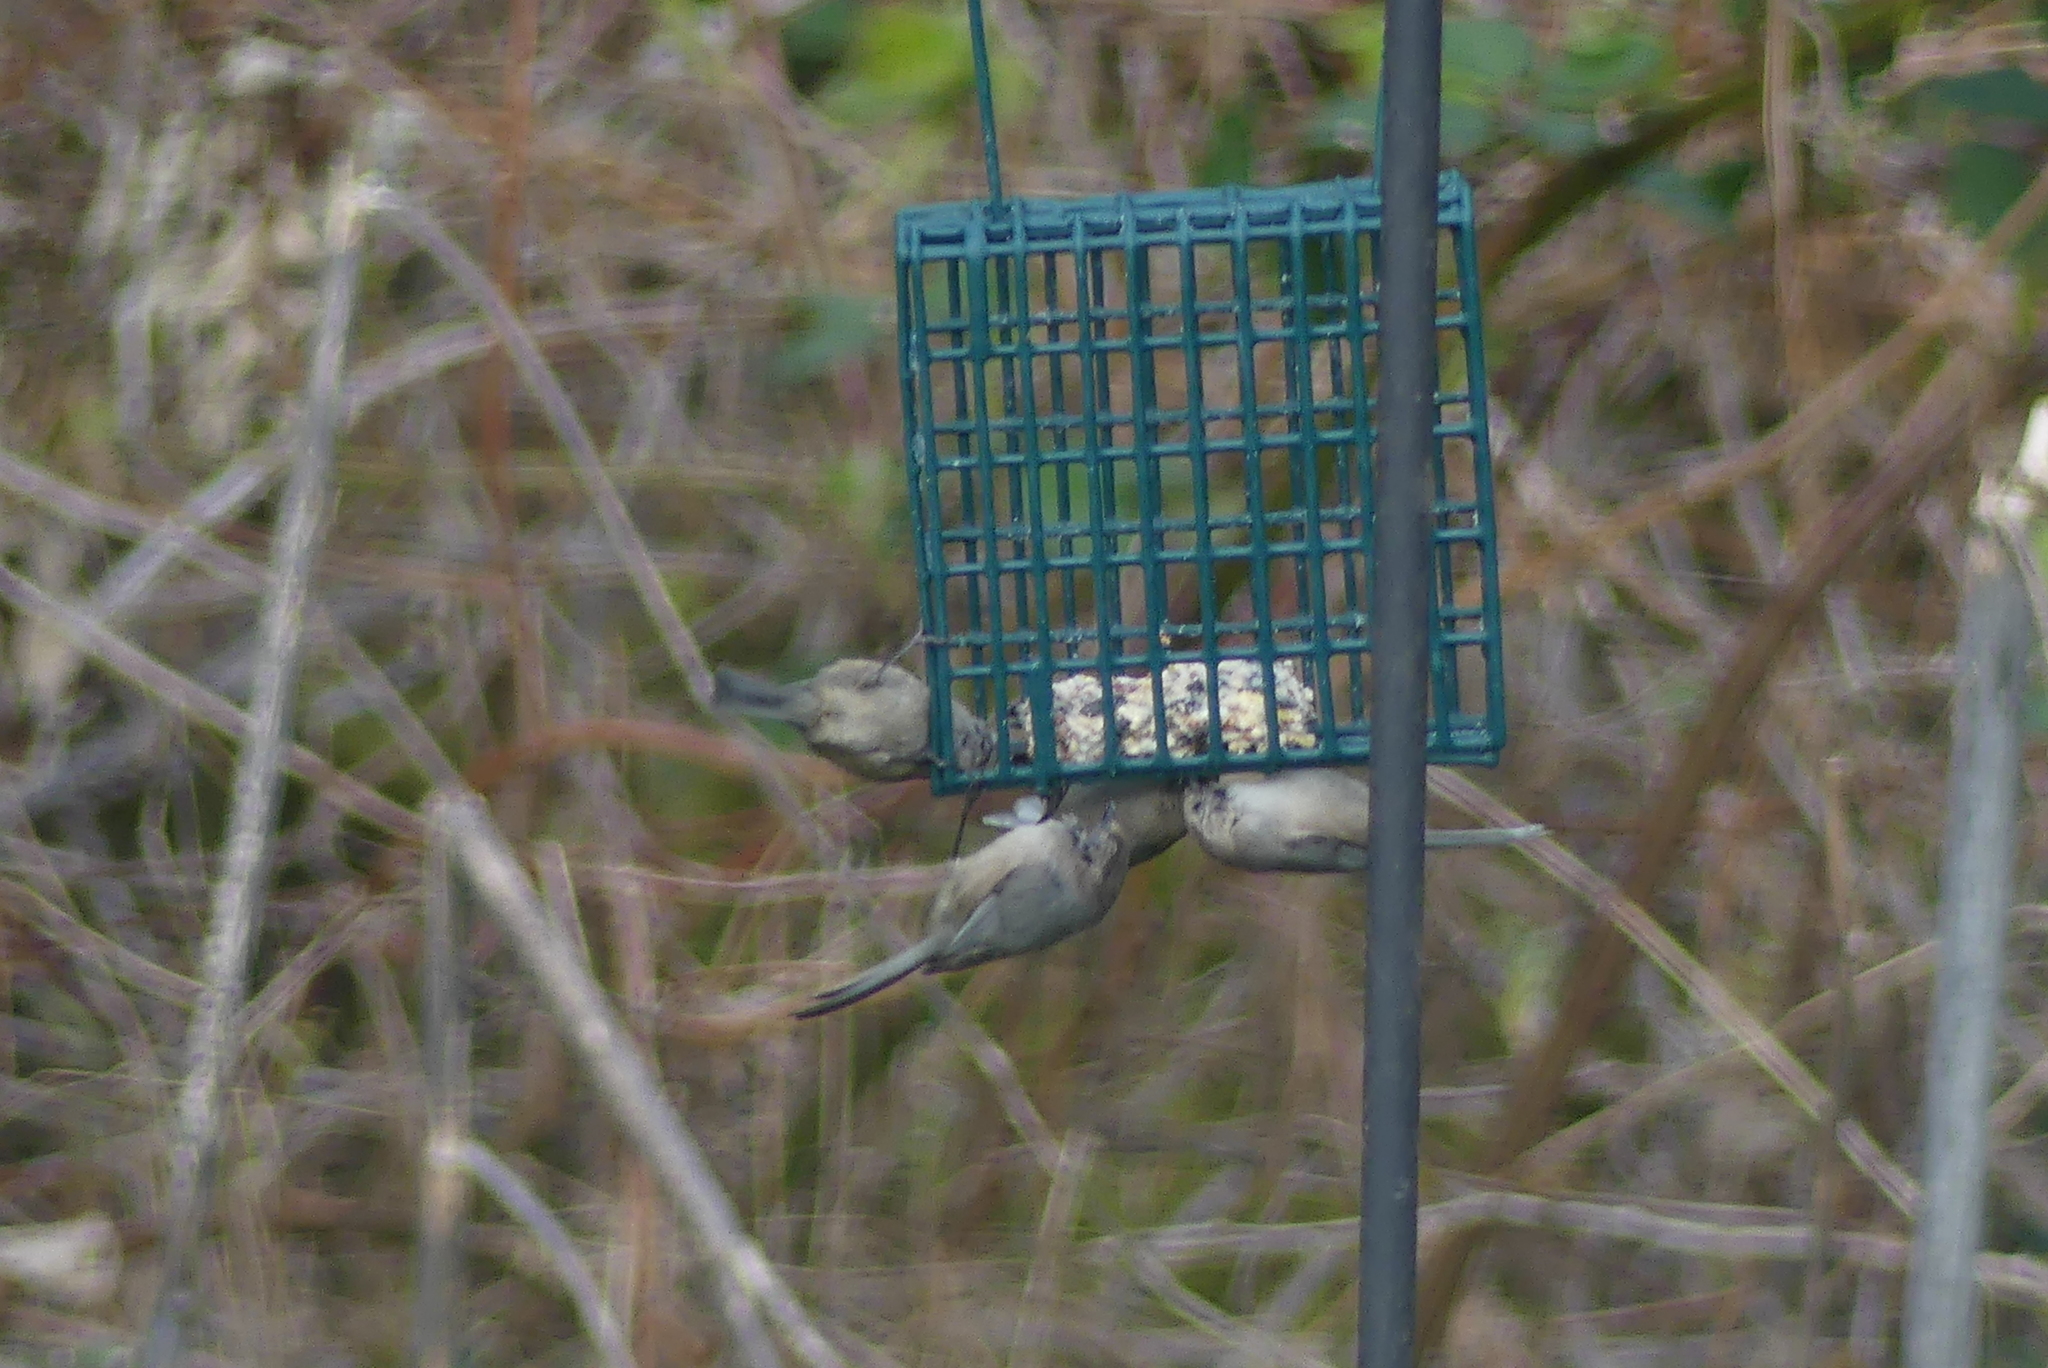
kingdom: Animalia
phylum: Chordata
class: Aves
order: Passeriformes
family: Aegithalidae
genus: Psaltriparus
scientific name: Psaltriparus minimus
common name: American bushtit
